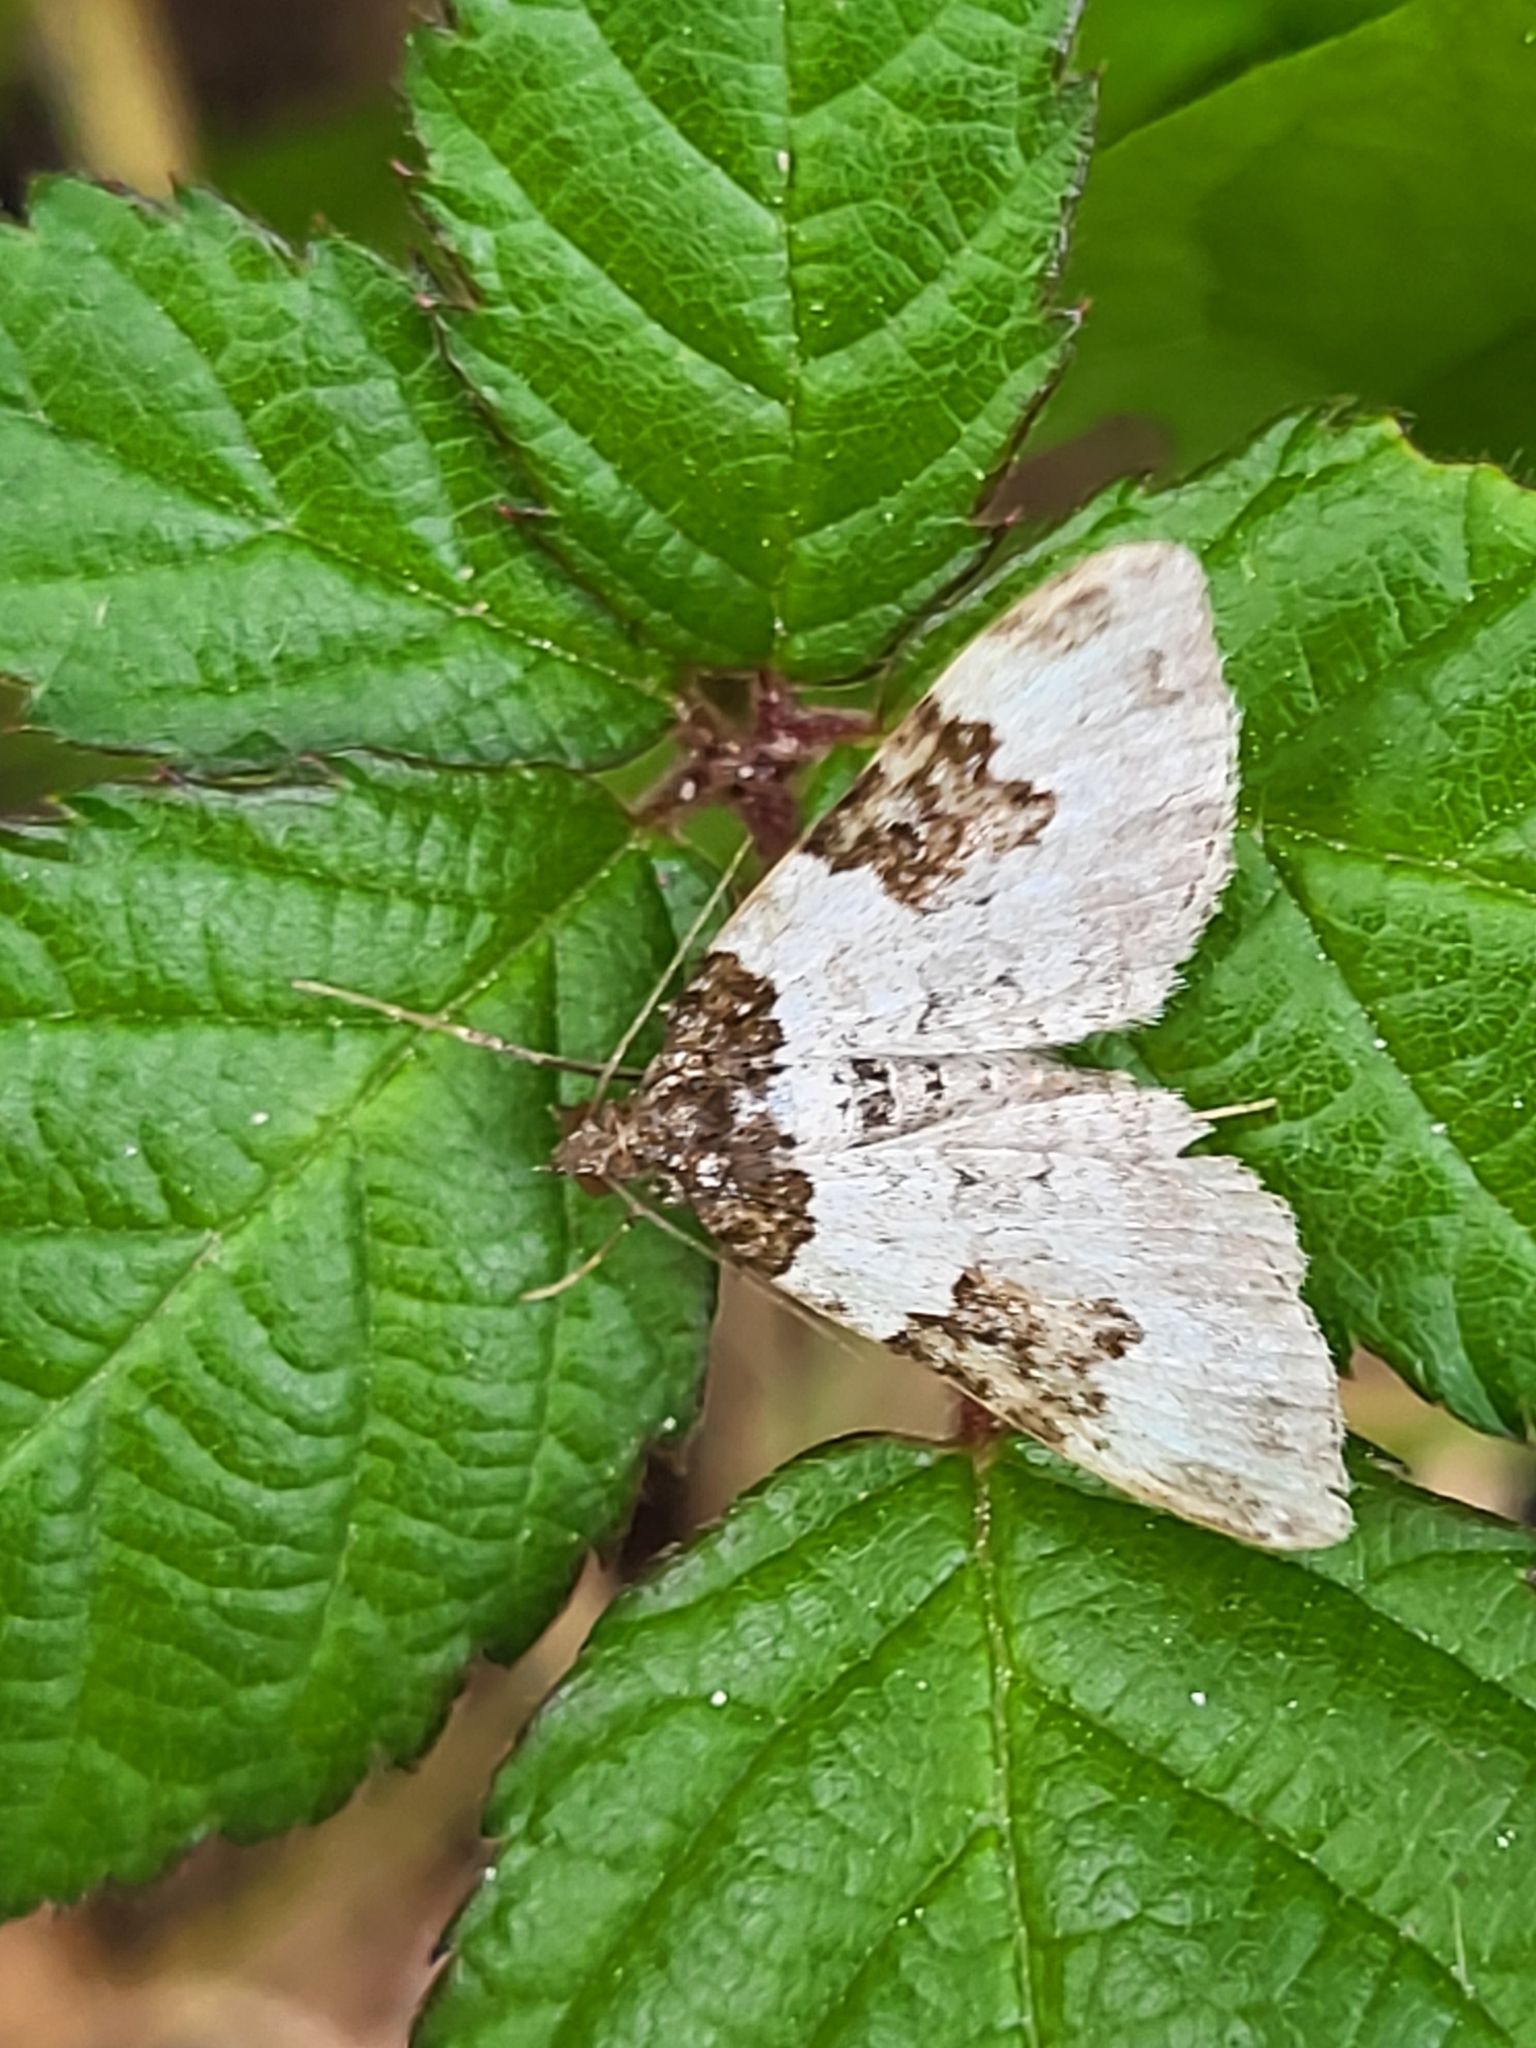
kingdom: Animalia
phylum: Arthropoda
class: Insecta
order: Lepidoptera
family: Geometridae
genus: Xanthorhoe
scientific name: Xanthorhoe fluctuata
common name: Garden carpet
